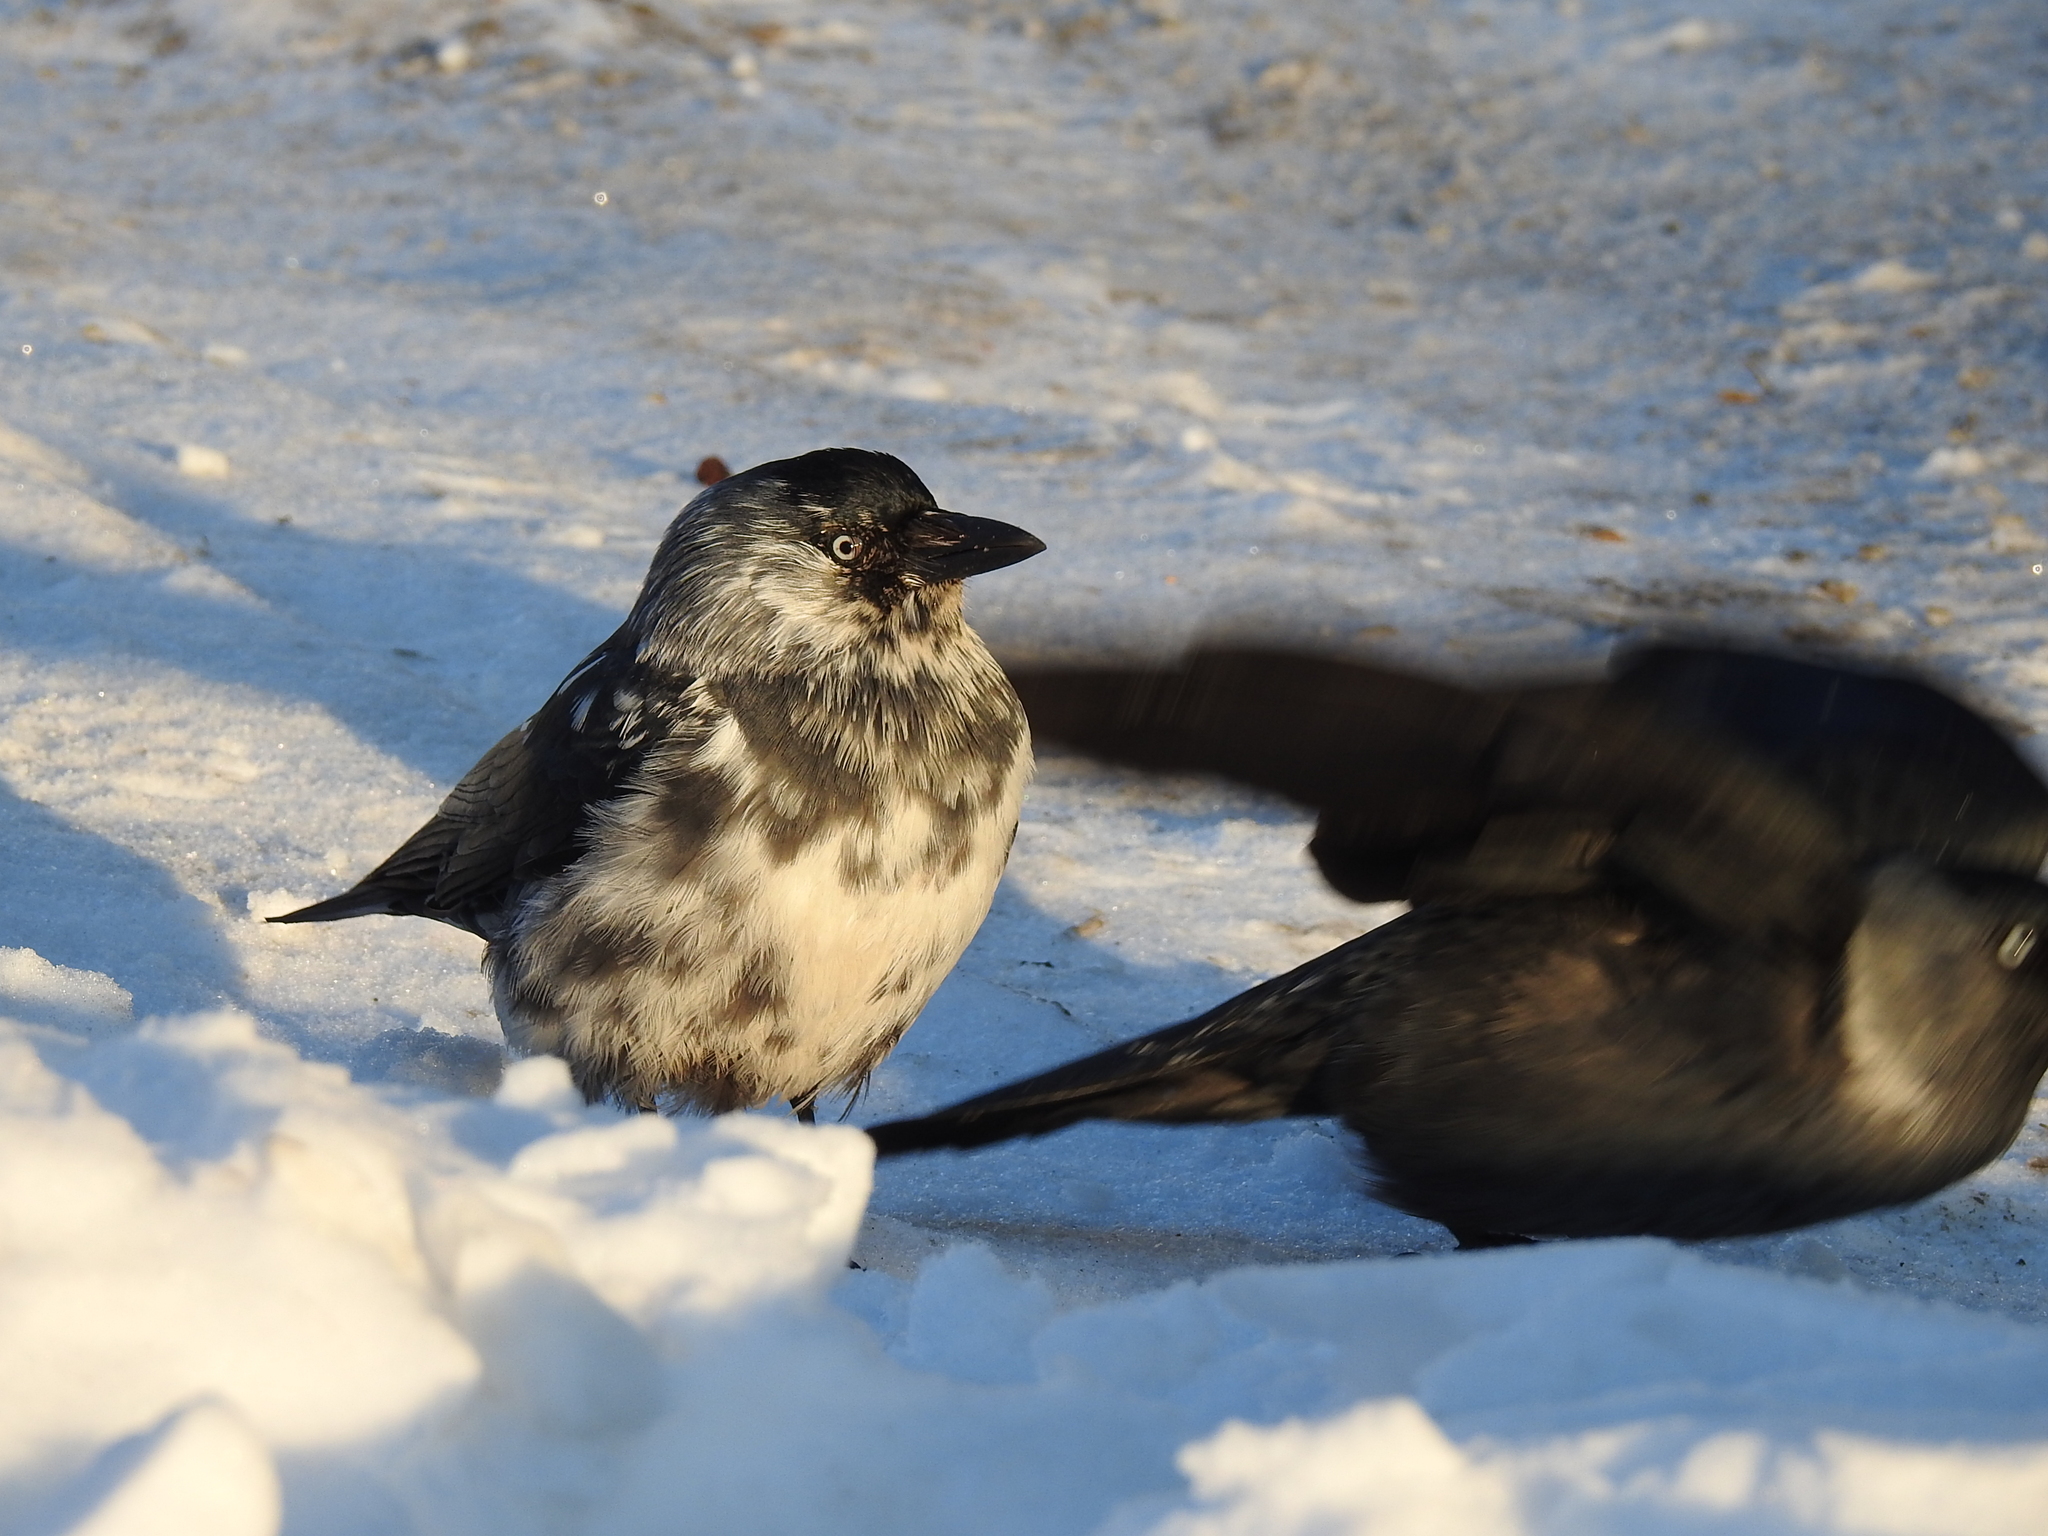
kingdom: Animalia
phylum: Chordata
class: Aves
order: Passeriformes
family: Corvidae
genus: Coloeus
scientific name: Coloeus monedula
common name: Western jackdaw
